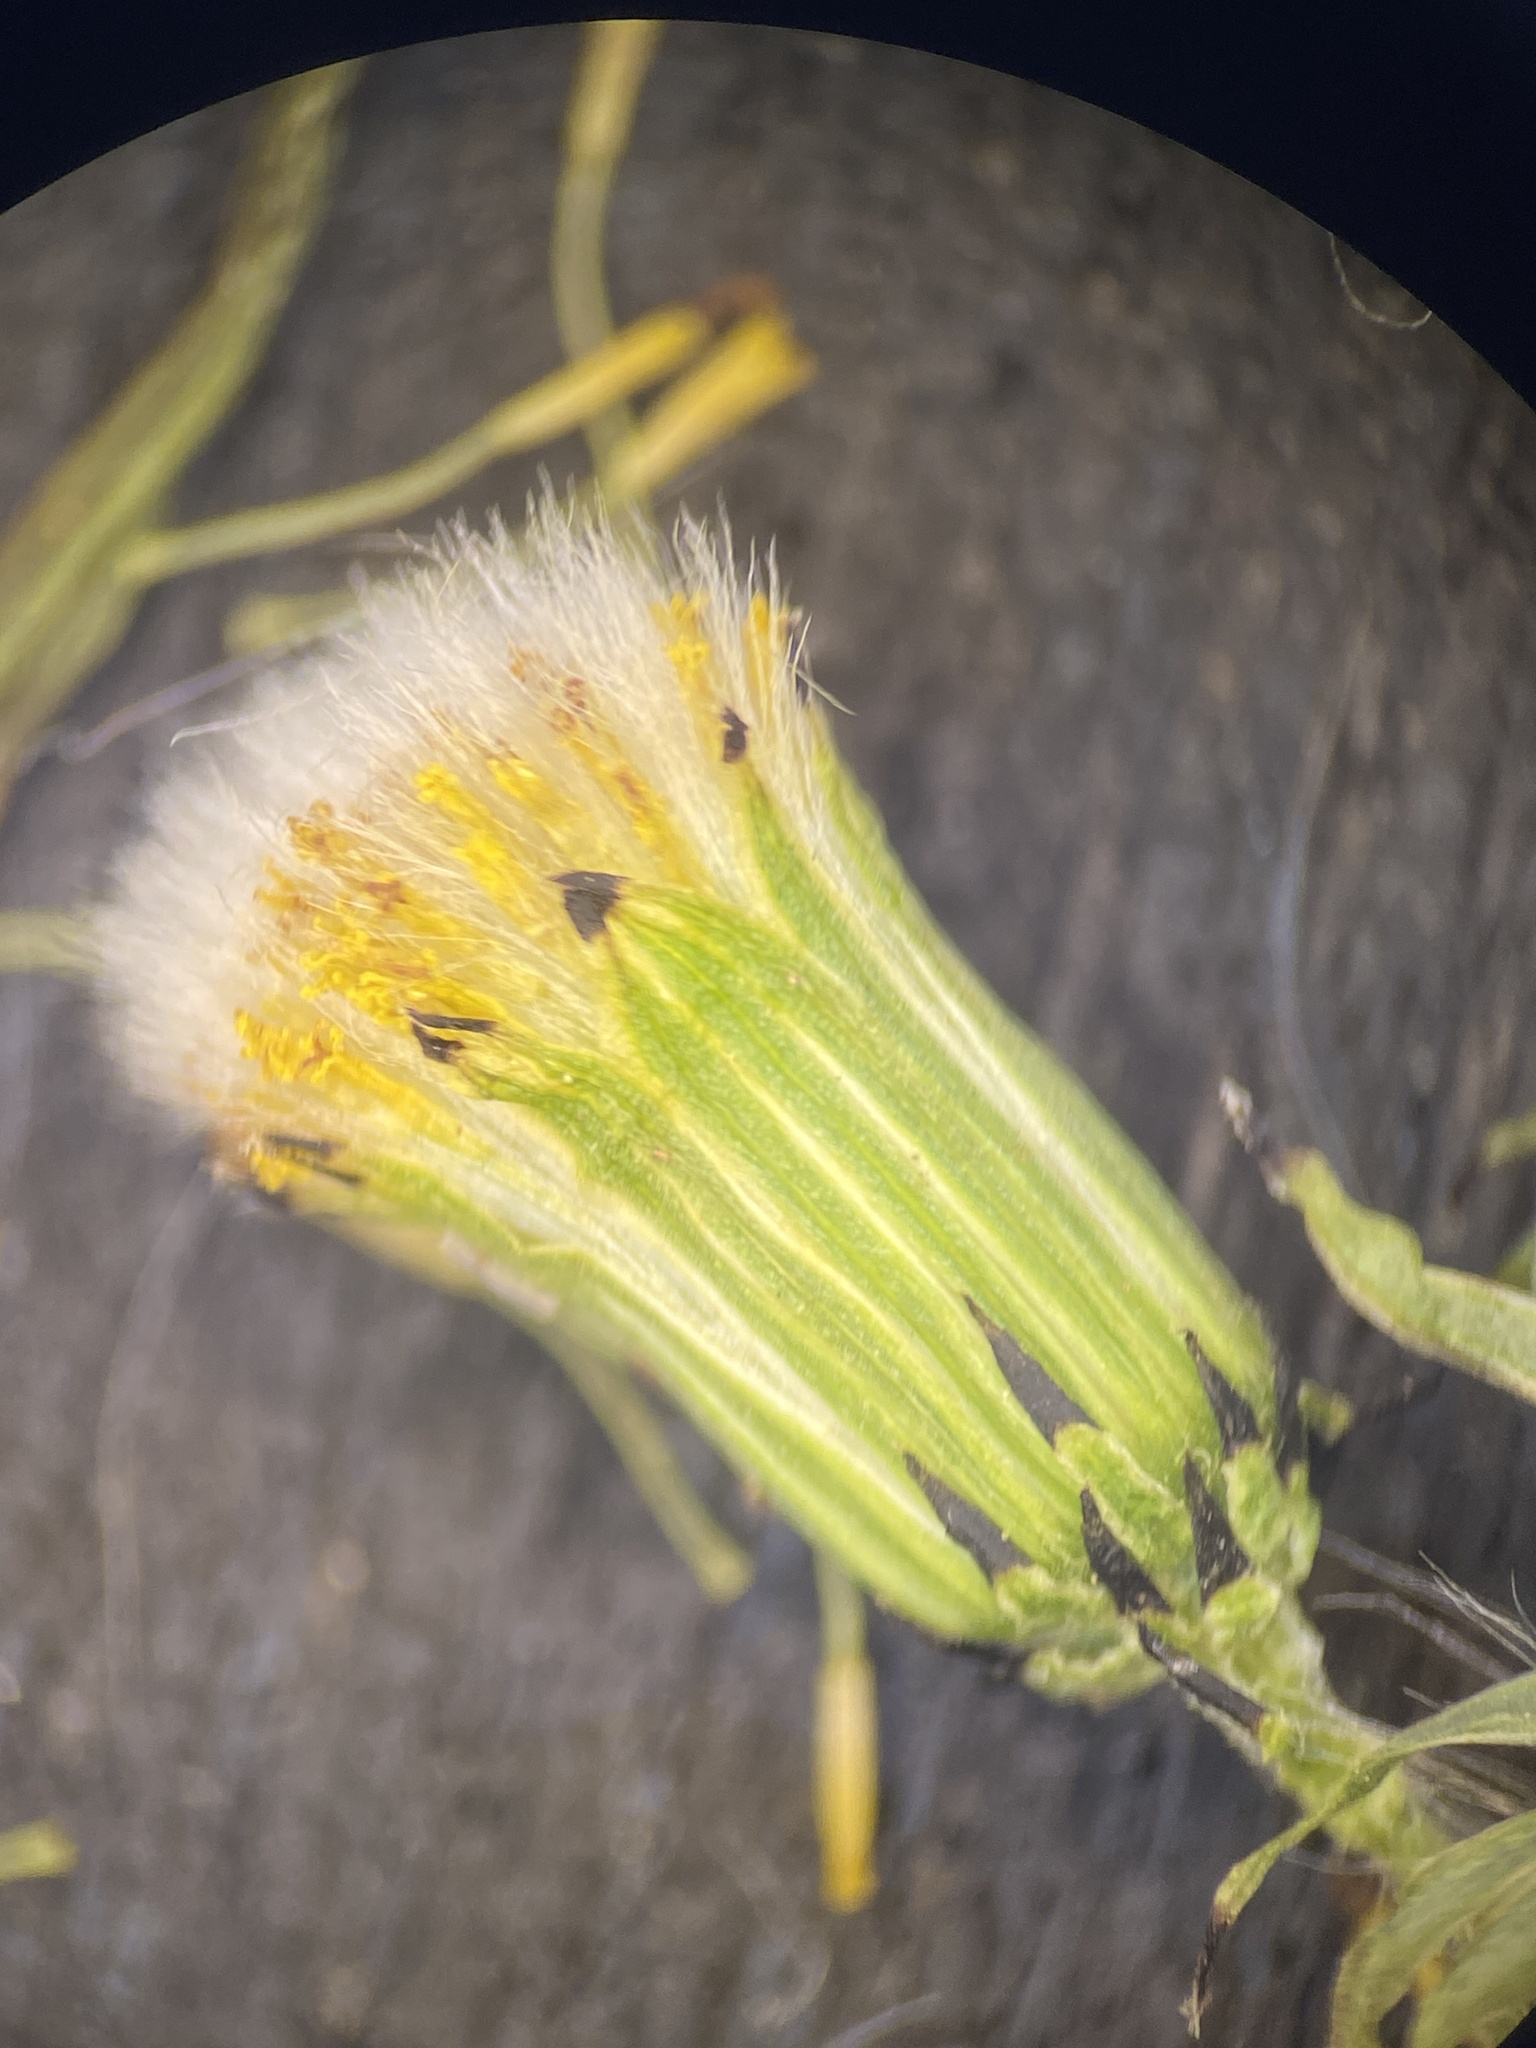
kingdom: Plantae
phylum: Tracheophyta
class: Magnoliopsida
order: Asterales
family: Asteraceae
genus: Senecio
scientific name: Senecio vulgaris
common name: Old-man-in-the-spring
